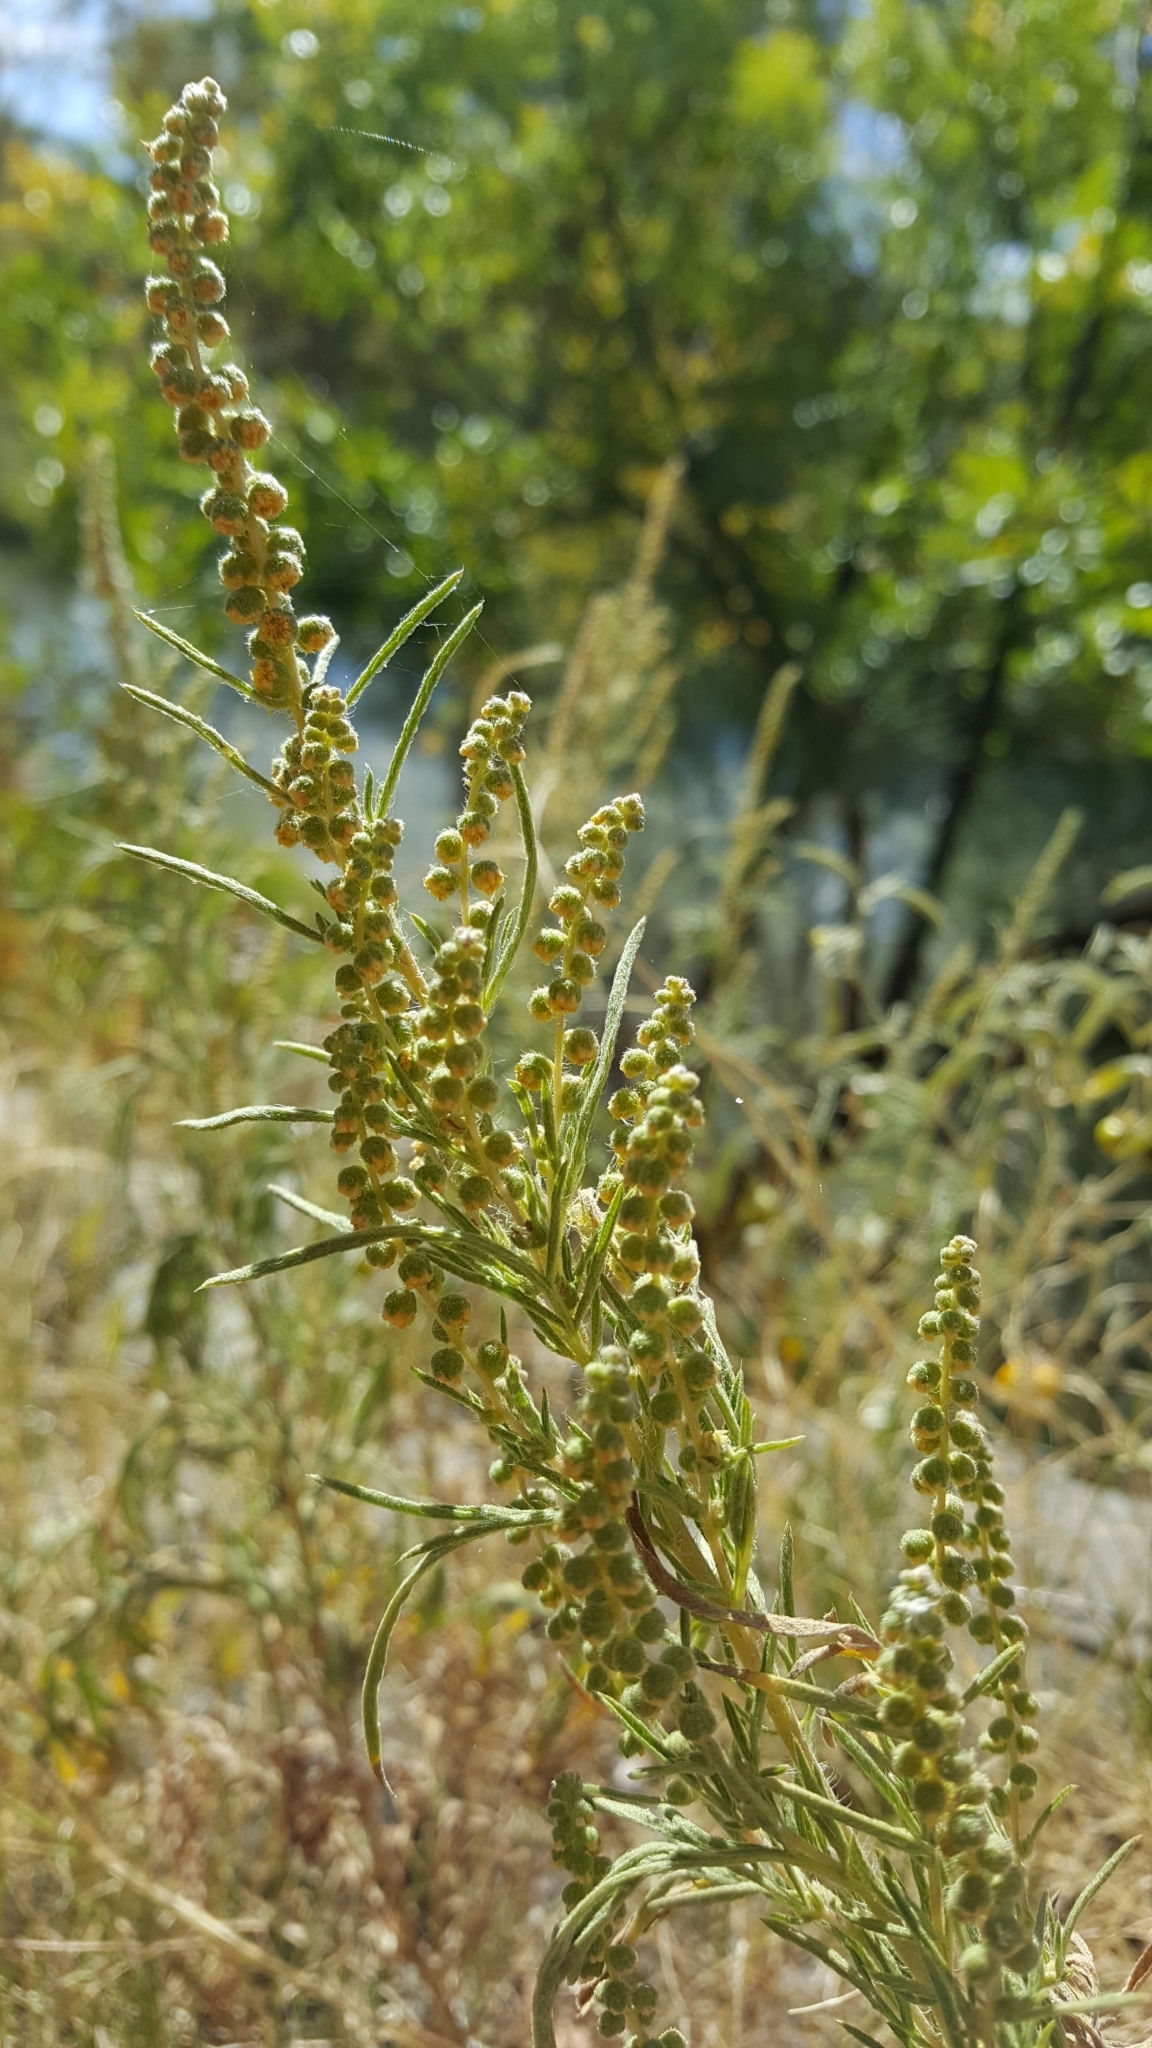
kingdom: Plantae
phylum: Tracheophyta
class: Magnoliopsida
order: Asterales
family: Asteraceae
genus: Ambrosia
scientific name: Ambrosia psilostachya
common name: Perennial ragweed
